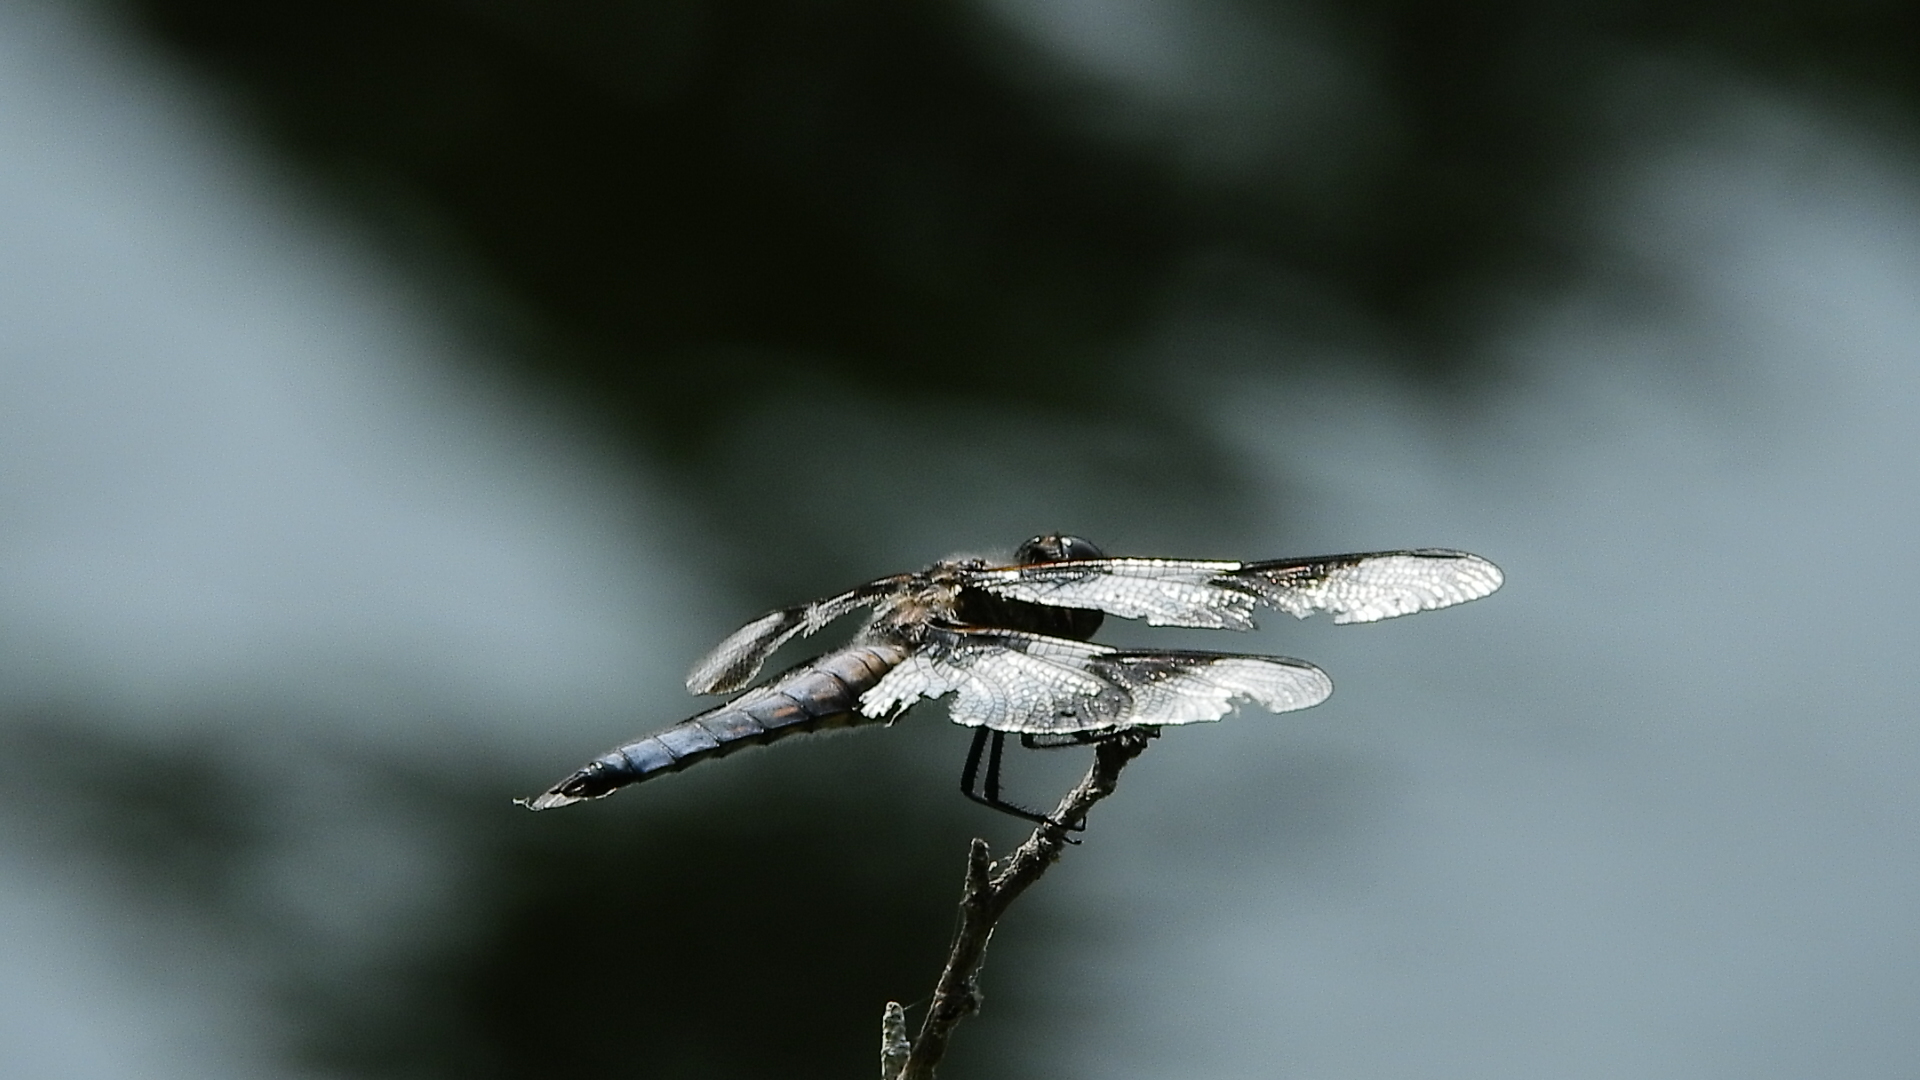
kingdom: Animalia
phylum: Arthropoda
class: Insecta
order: Odonata
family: Libellulidae
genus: Libellula
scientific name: Libellula forensis
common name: Eight-spotted skimmer
